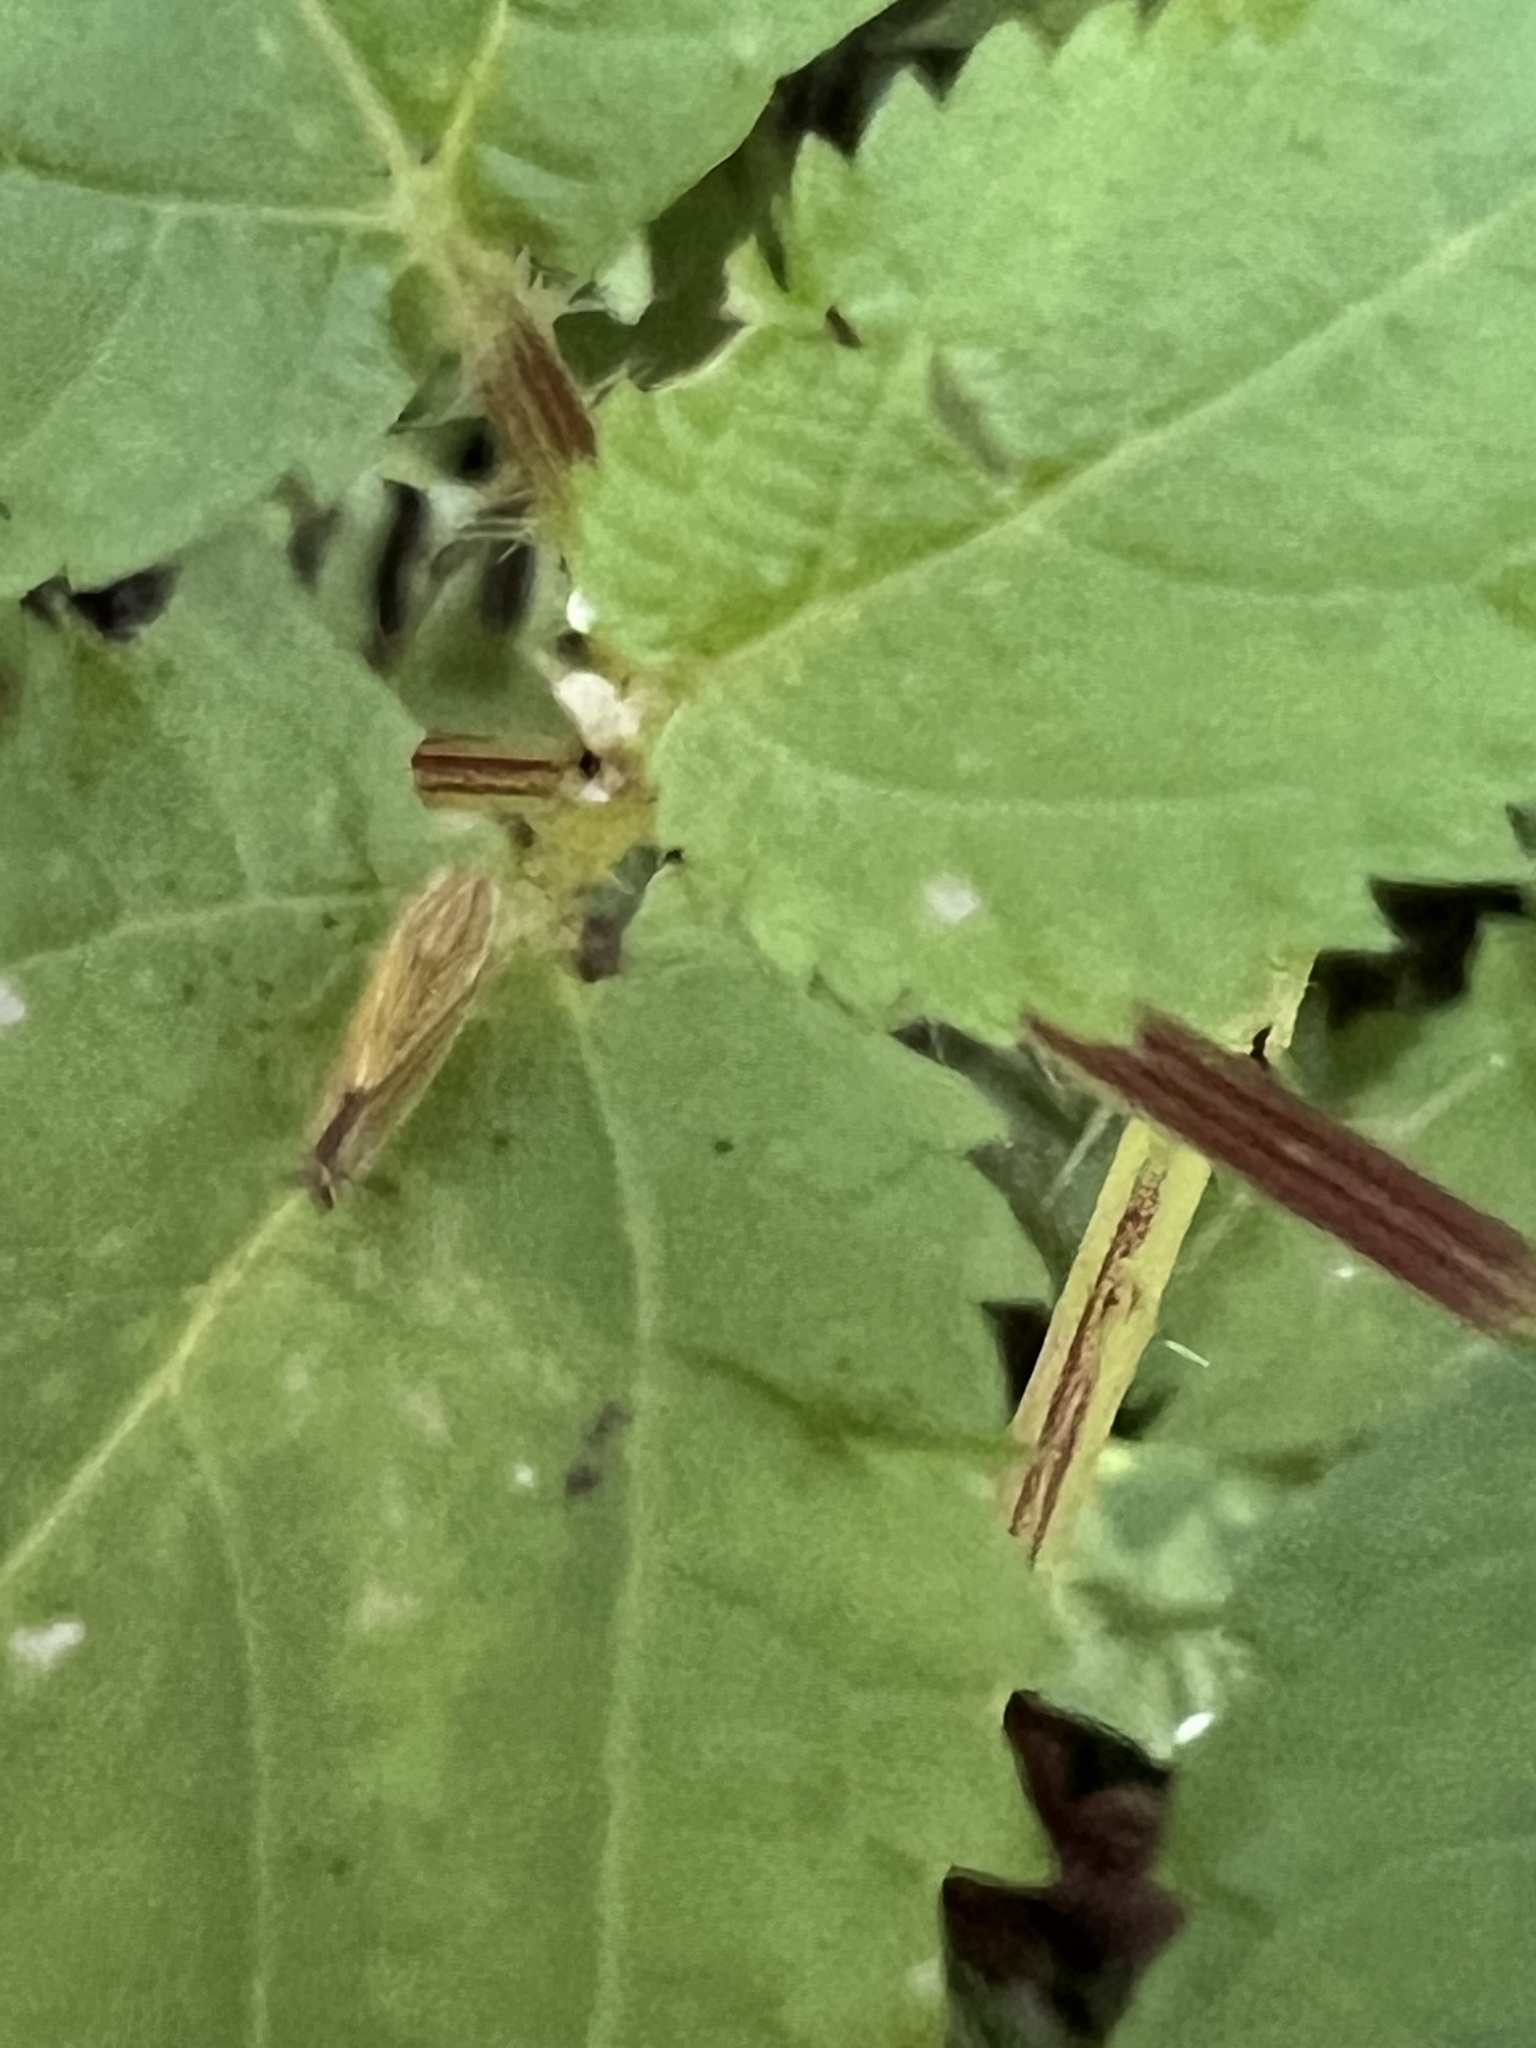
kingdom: Animalia
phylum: Arthropoda
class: Insecta
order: Hemiptera
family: Cicadellidae
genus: Sibovia
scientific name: Sibovia occatoria
